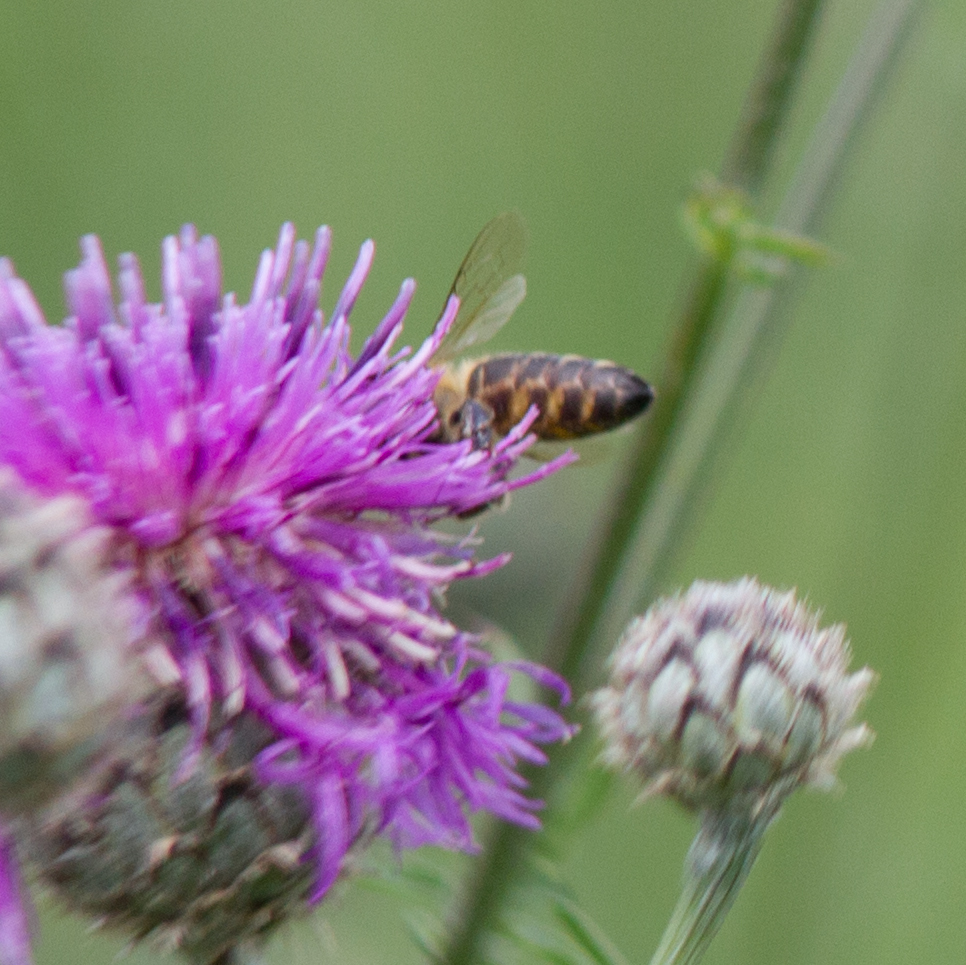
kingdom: Animalia
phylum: Arthropoda
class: Insecta
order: Hymenoptera
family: Apidae
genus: Apis
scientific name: Apis mellifera
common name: Honey bee
